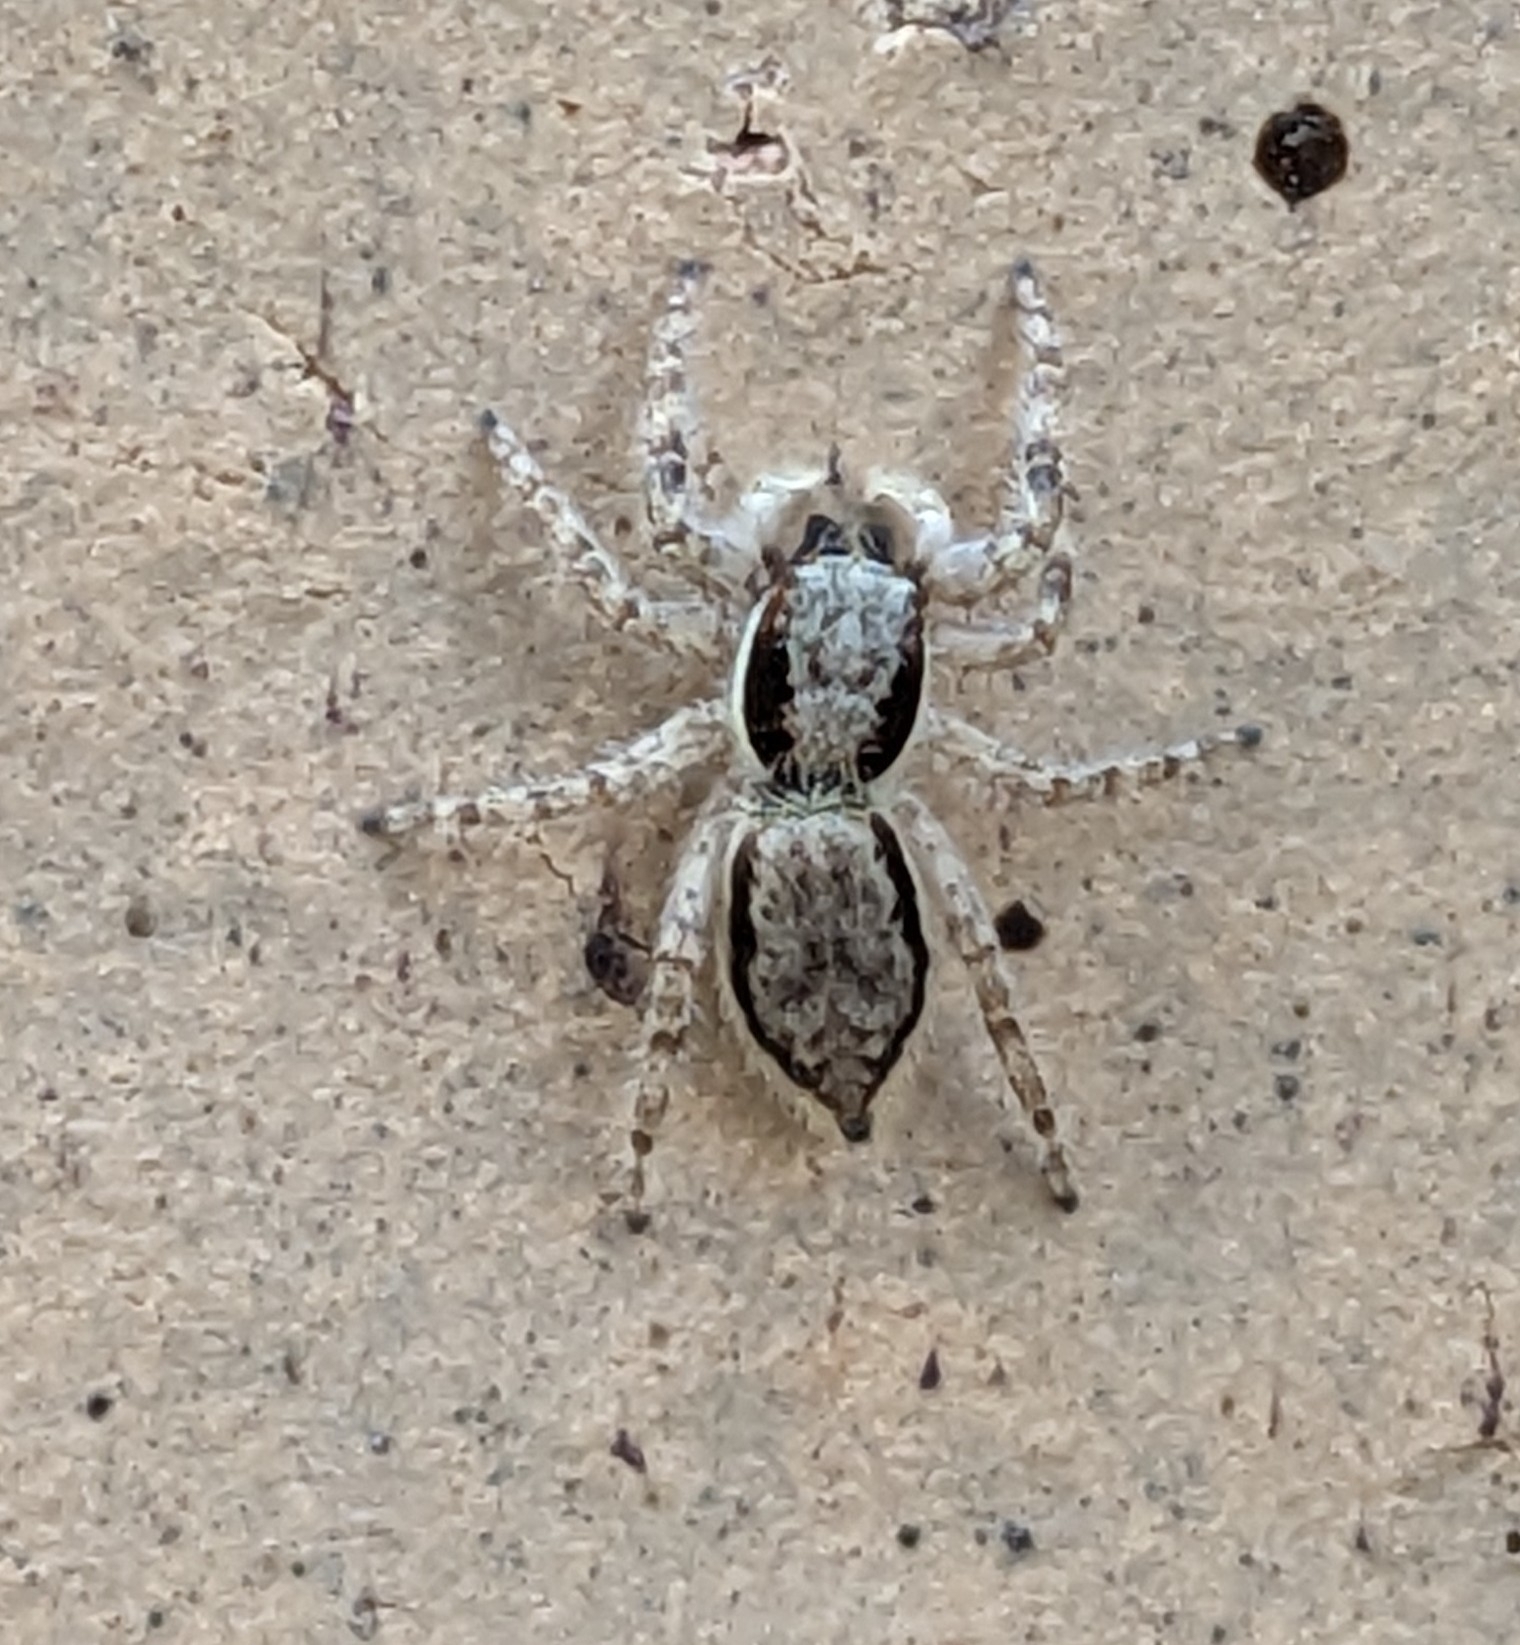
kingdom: Animalia
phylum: Arthropoda
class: Arachnida
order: Araneae
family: Salticidae
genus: Menemerus
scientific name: Menemerus bivittatus
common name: Gray wall jumper
